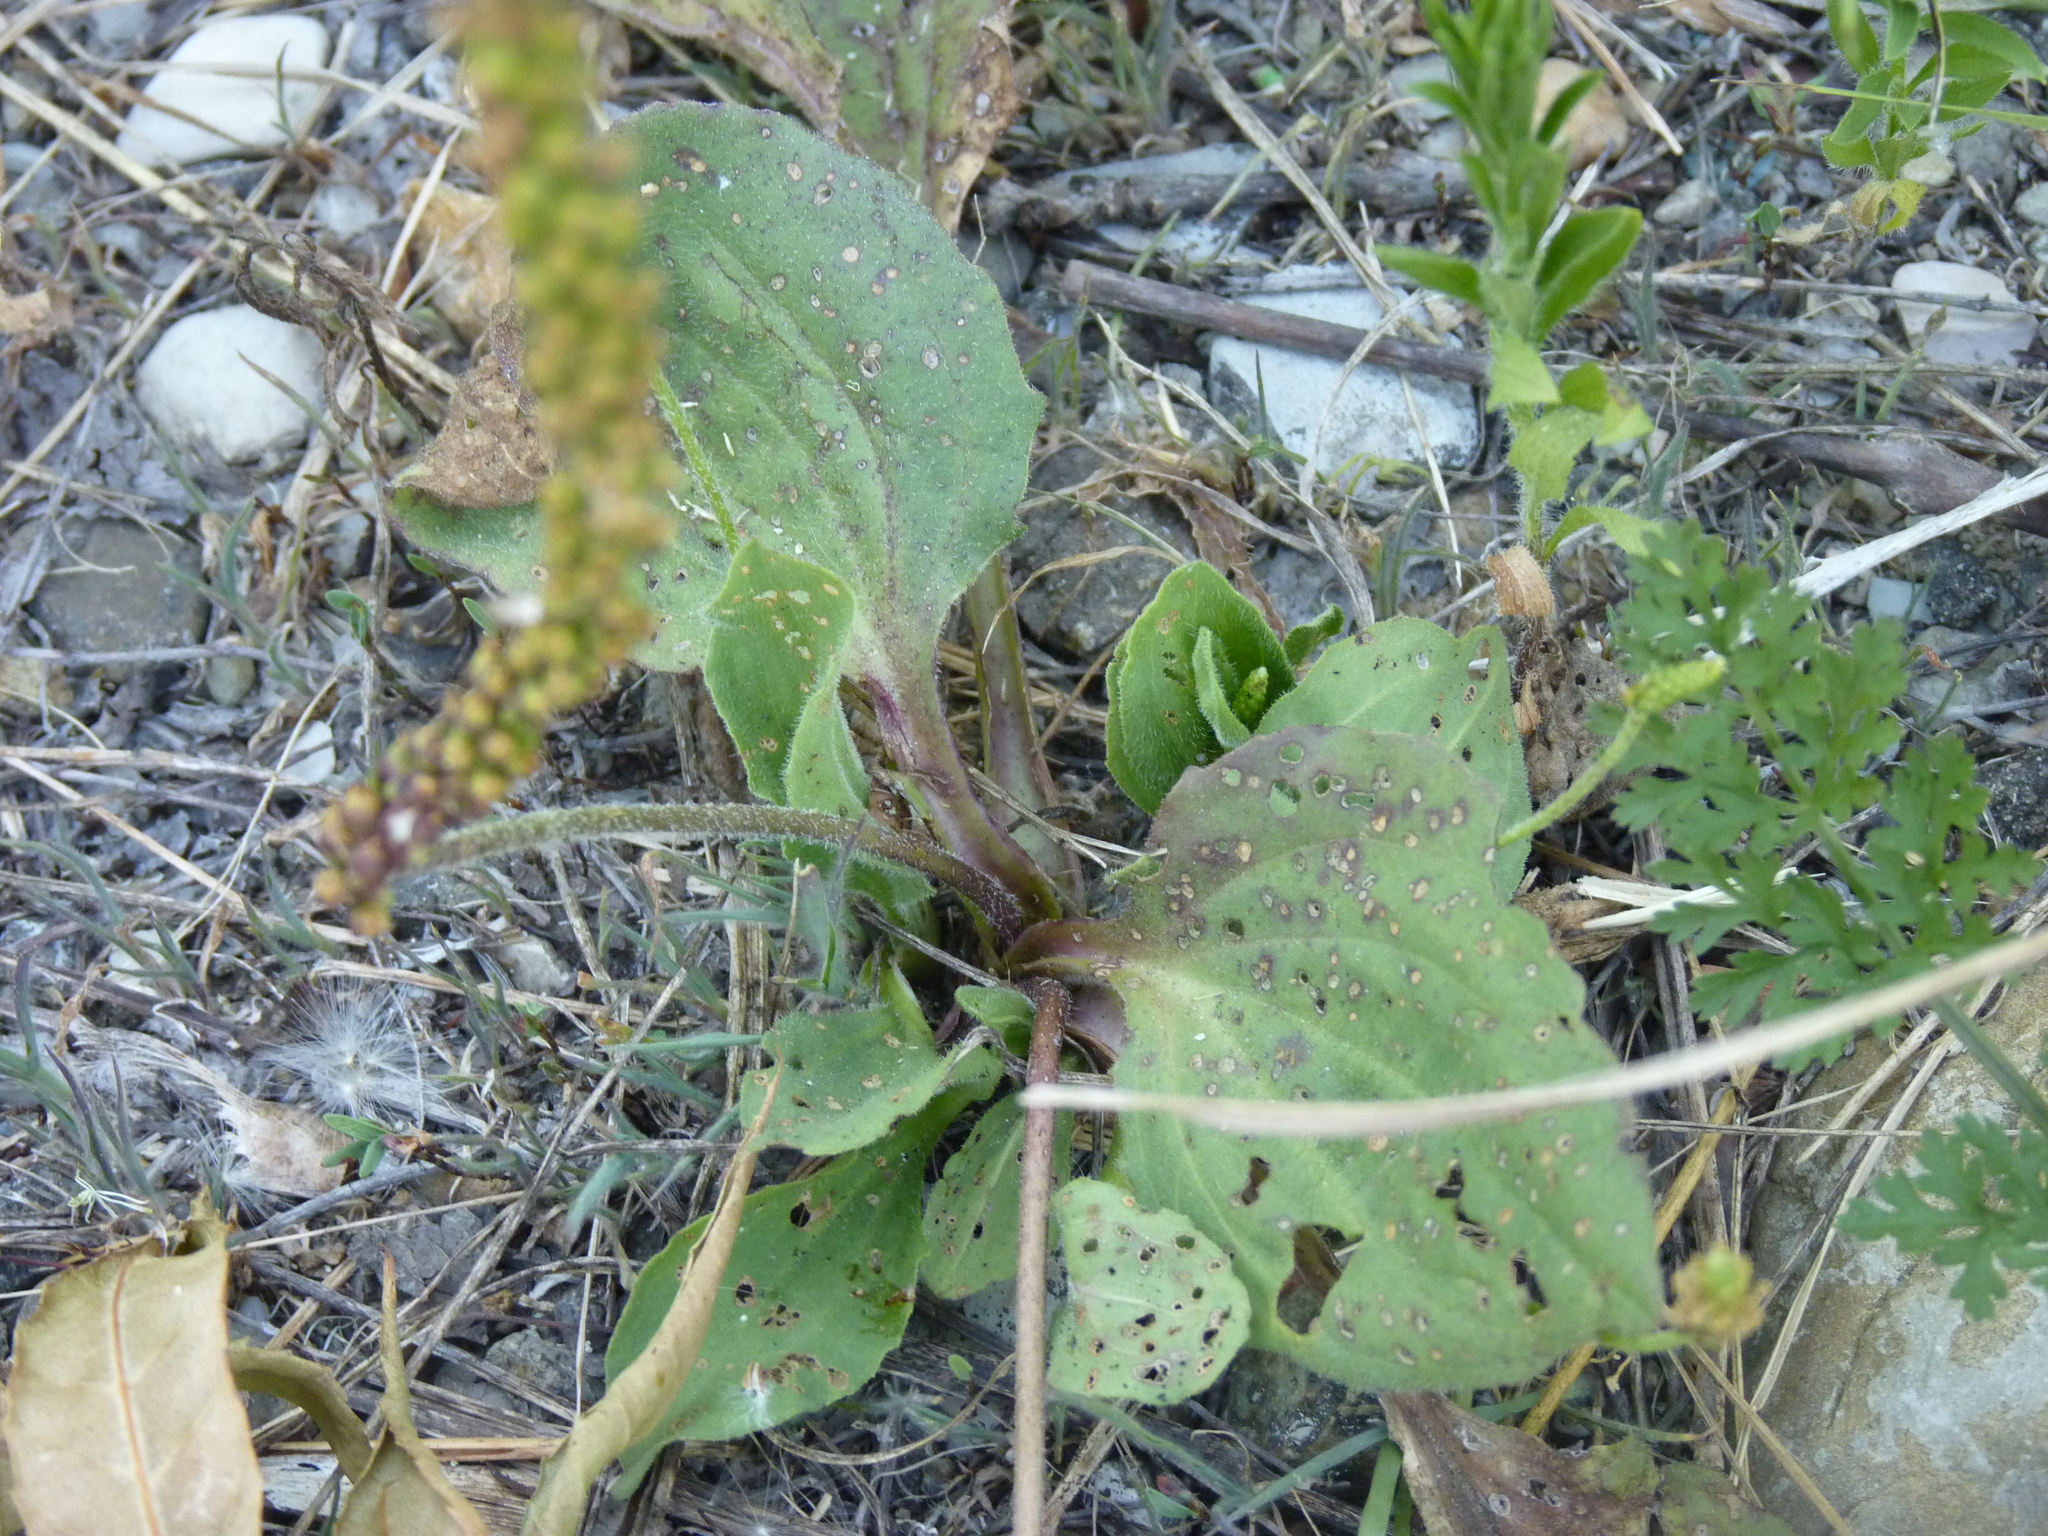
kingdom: Plantae
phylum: Tracheophyta
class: Magnoliopsida
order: Lamiales
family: Plantaginaceae
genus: Plantago
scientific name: Plantago major
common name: Common plantain
